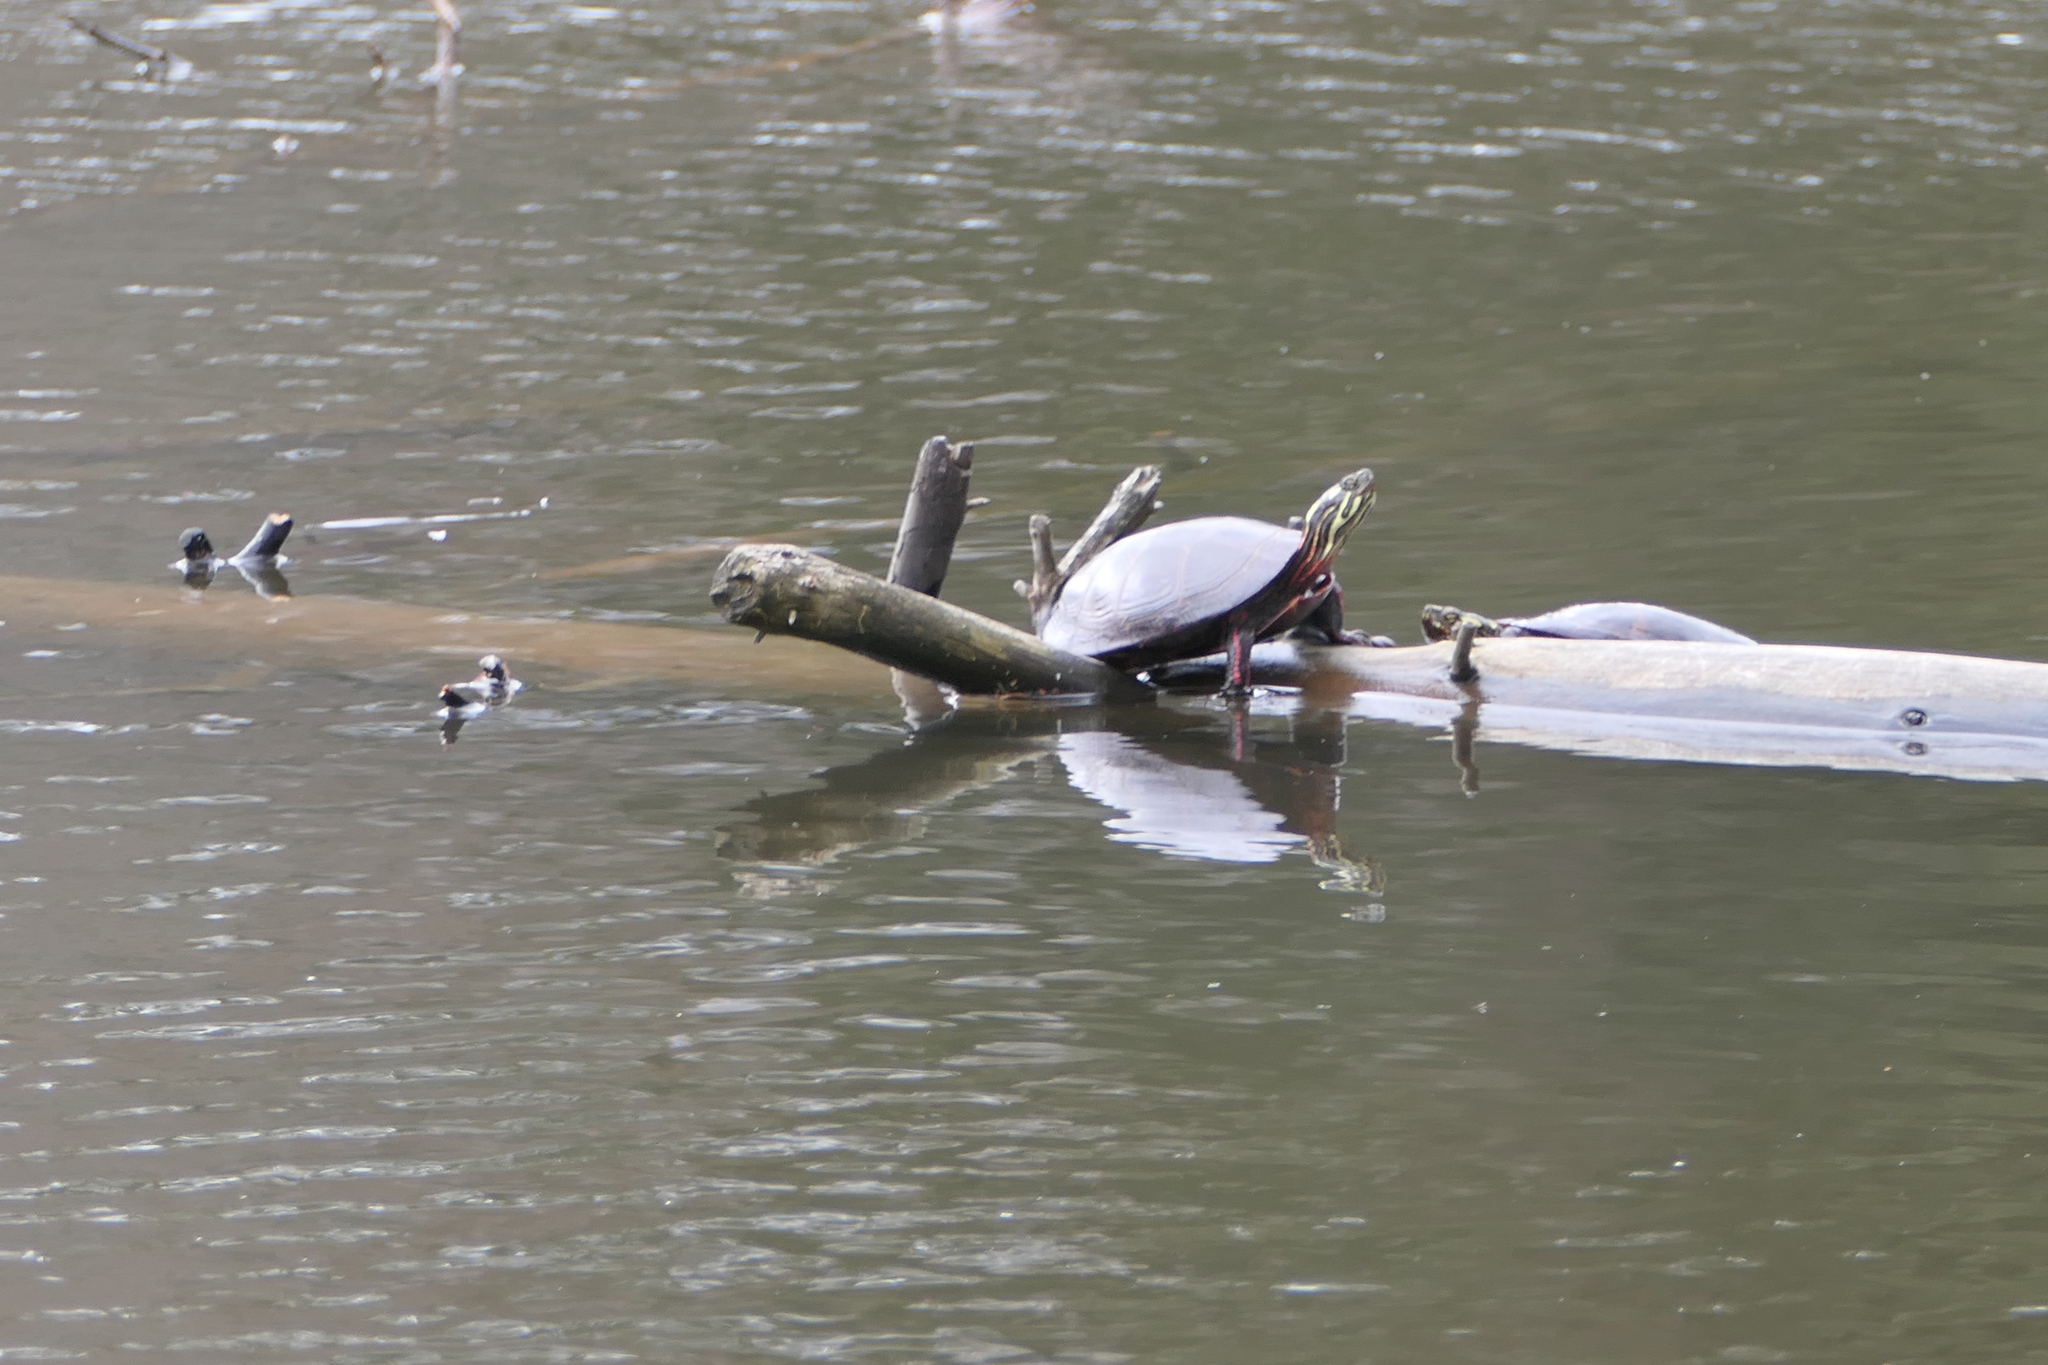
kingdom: Animalia
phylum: Chordata
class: Testudines
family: Emydidae
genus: Chrysemys
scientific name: Chrysemys picta
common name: Painted turtle
